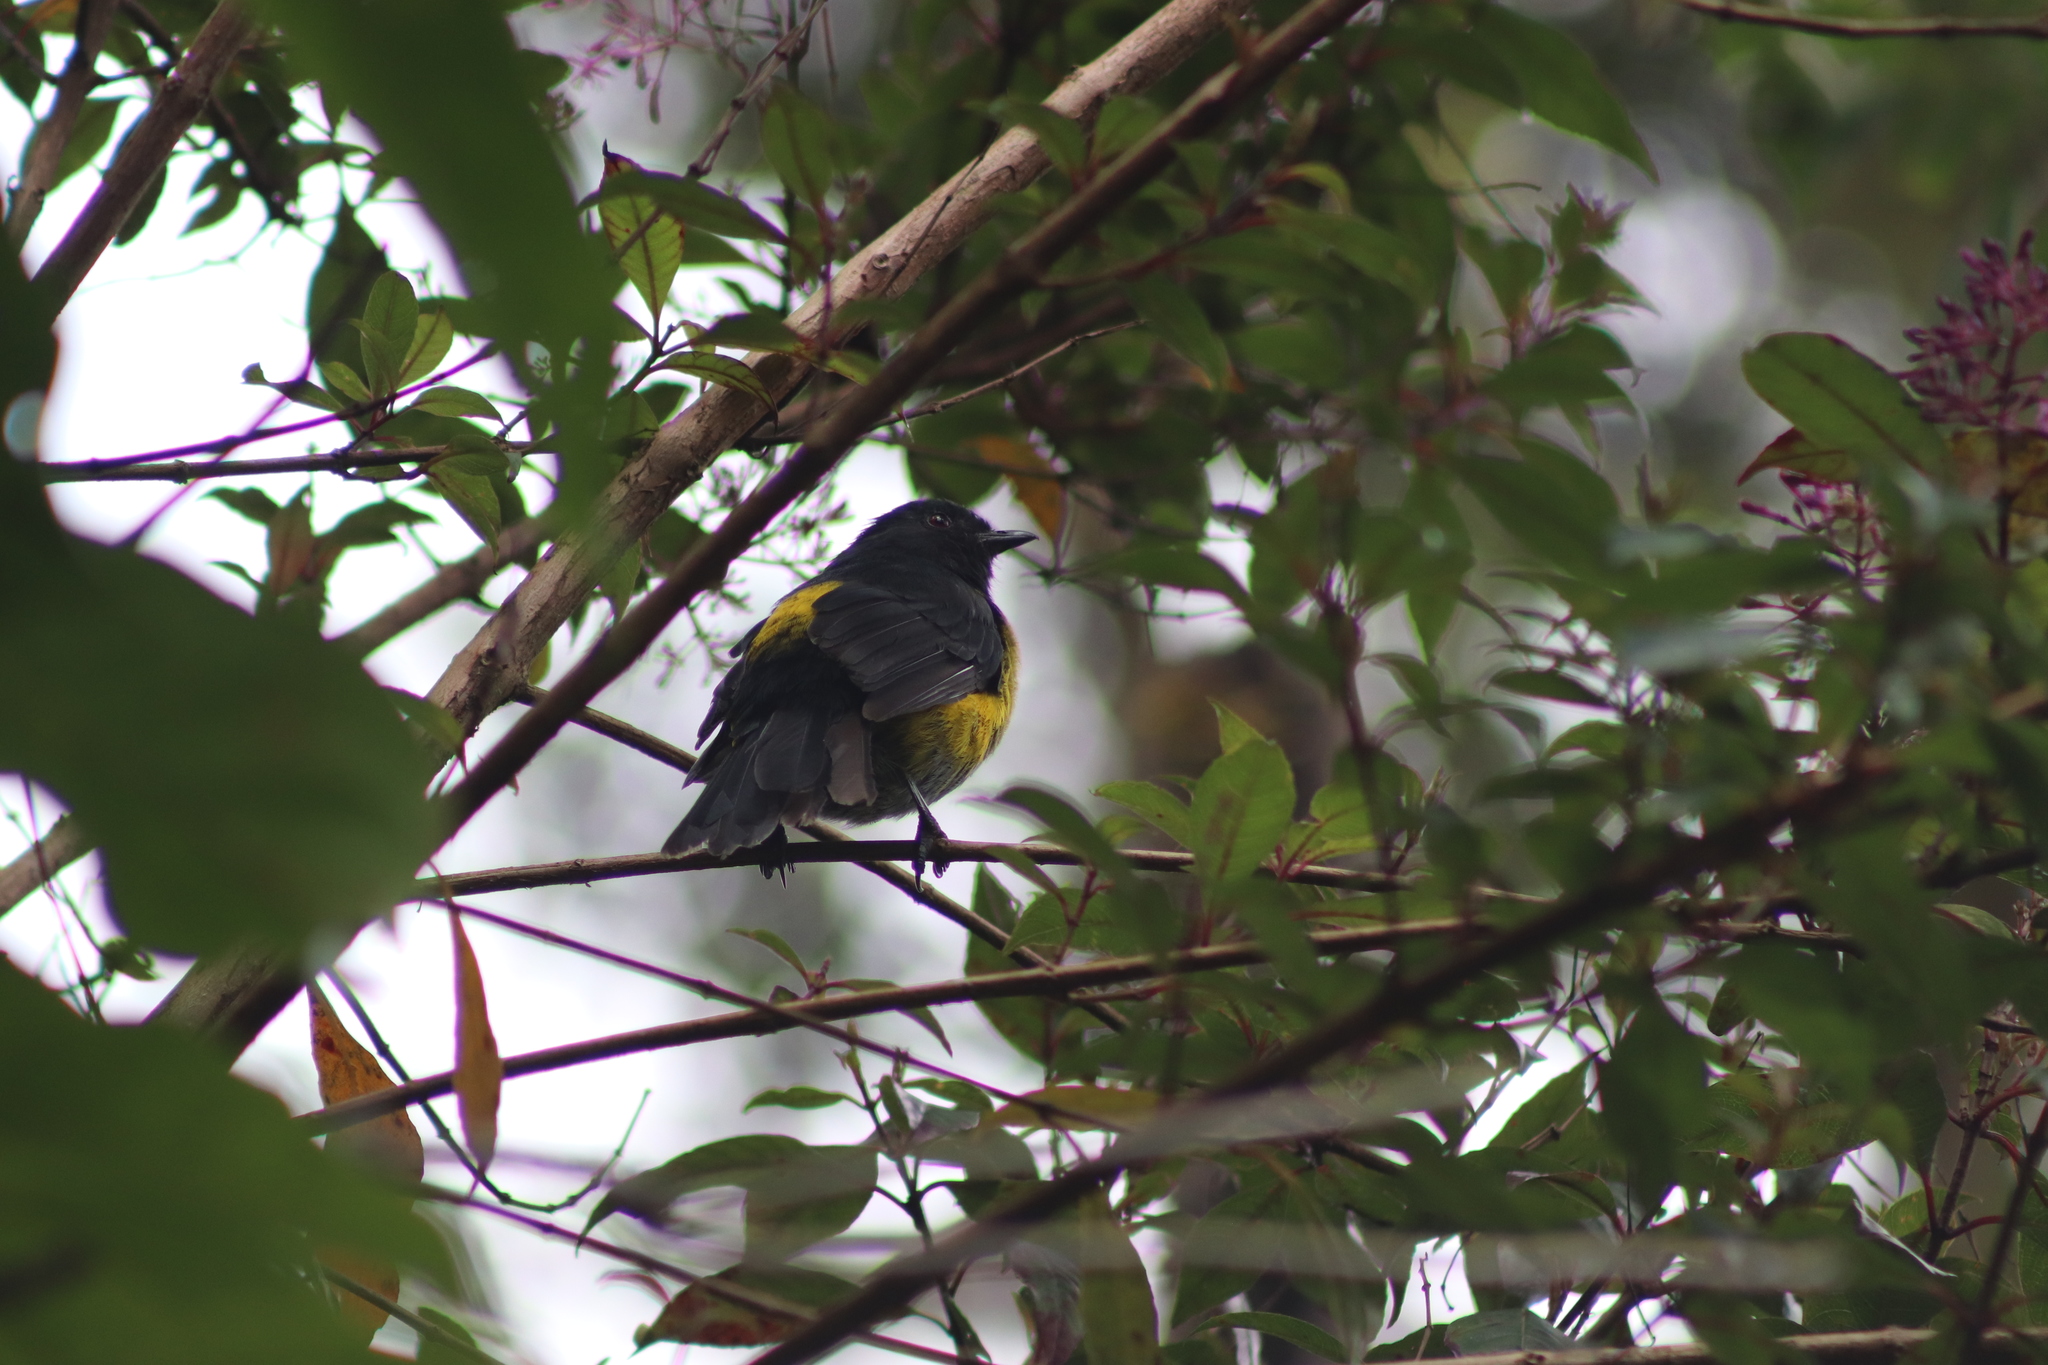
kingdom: Animalia
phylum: Chordata
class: Aves
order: Passeriformes
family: Ptilogonatidae
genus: Phainoptila
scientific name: Phainoptila melanoxantha
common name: Black-and-yellow phainoptila
